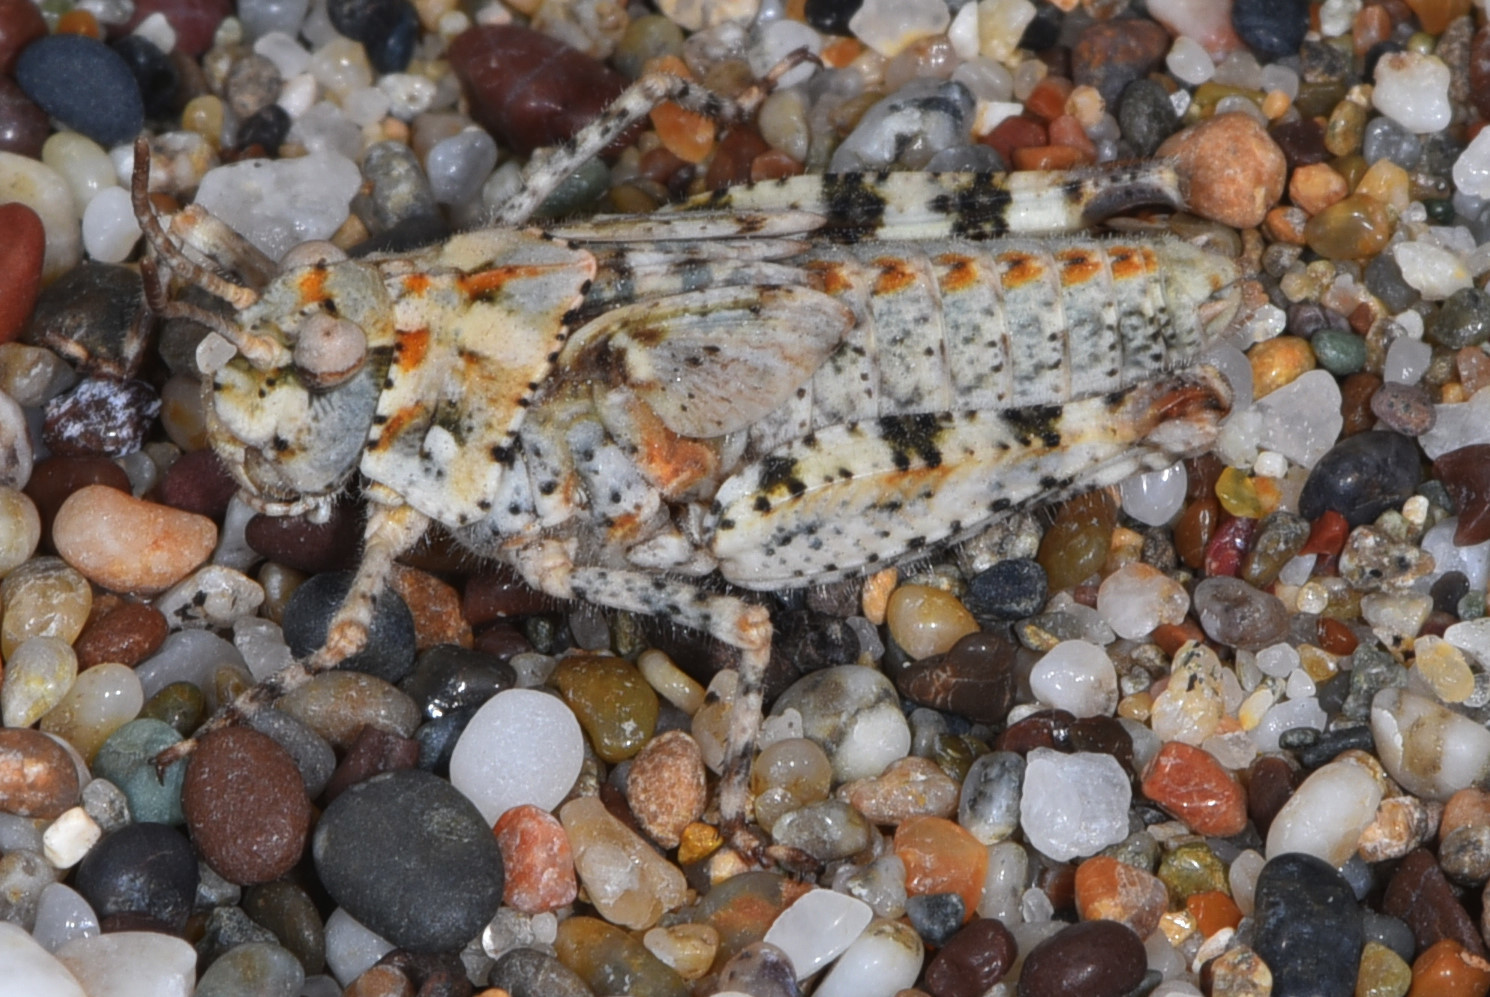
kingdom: Animalia
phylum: Arthropoda
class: Insecta
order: Orthoptera
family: Acrididae
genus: Microtes
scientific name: Microtes occidentalis
